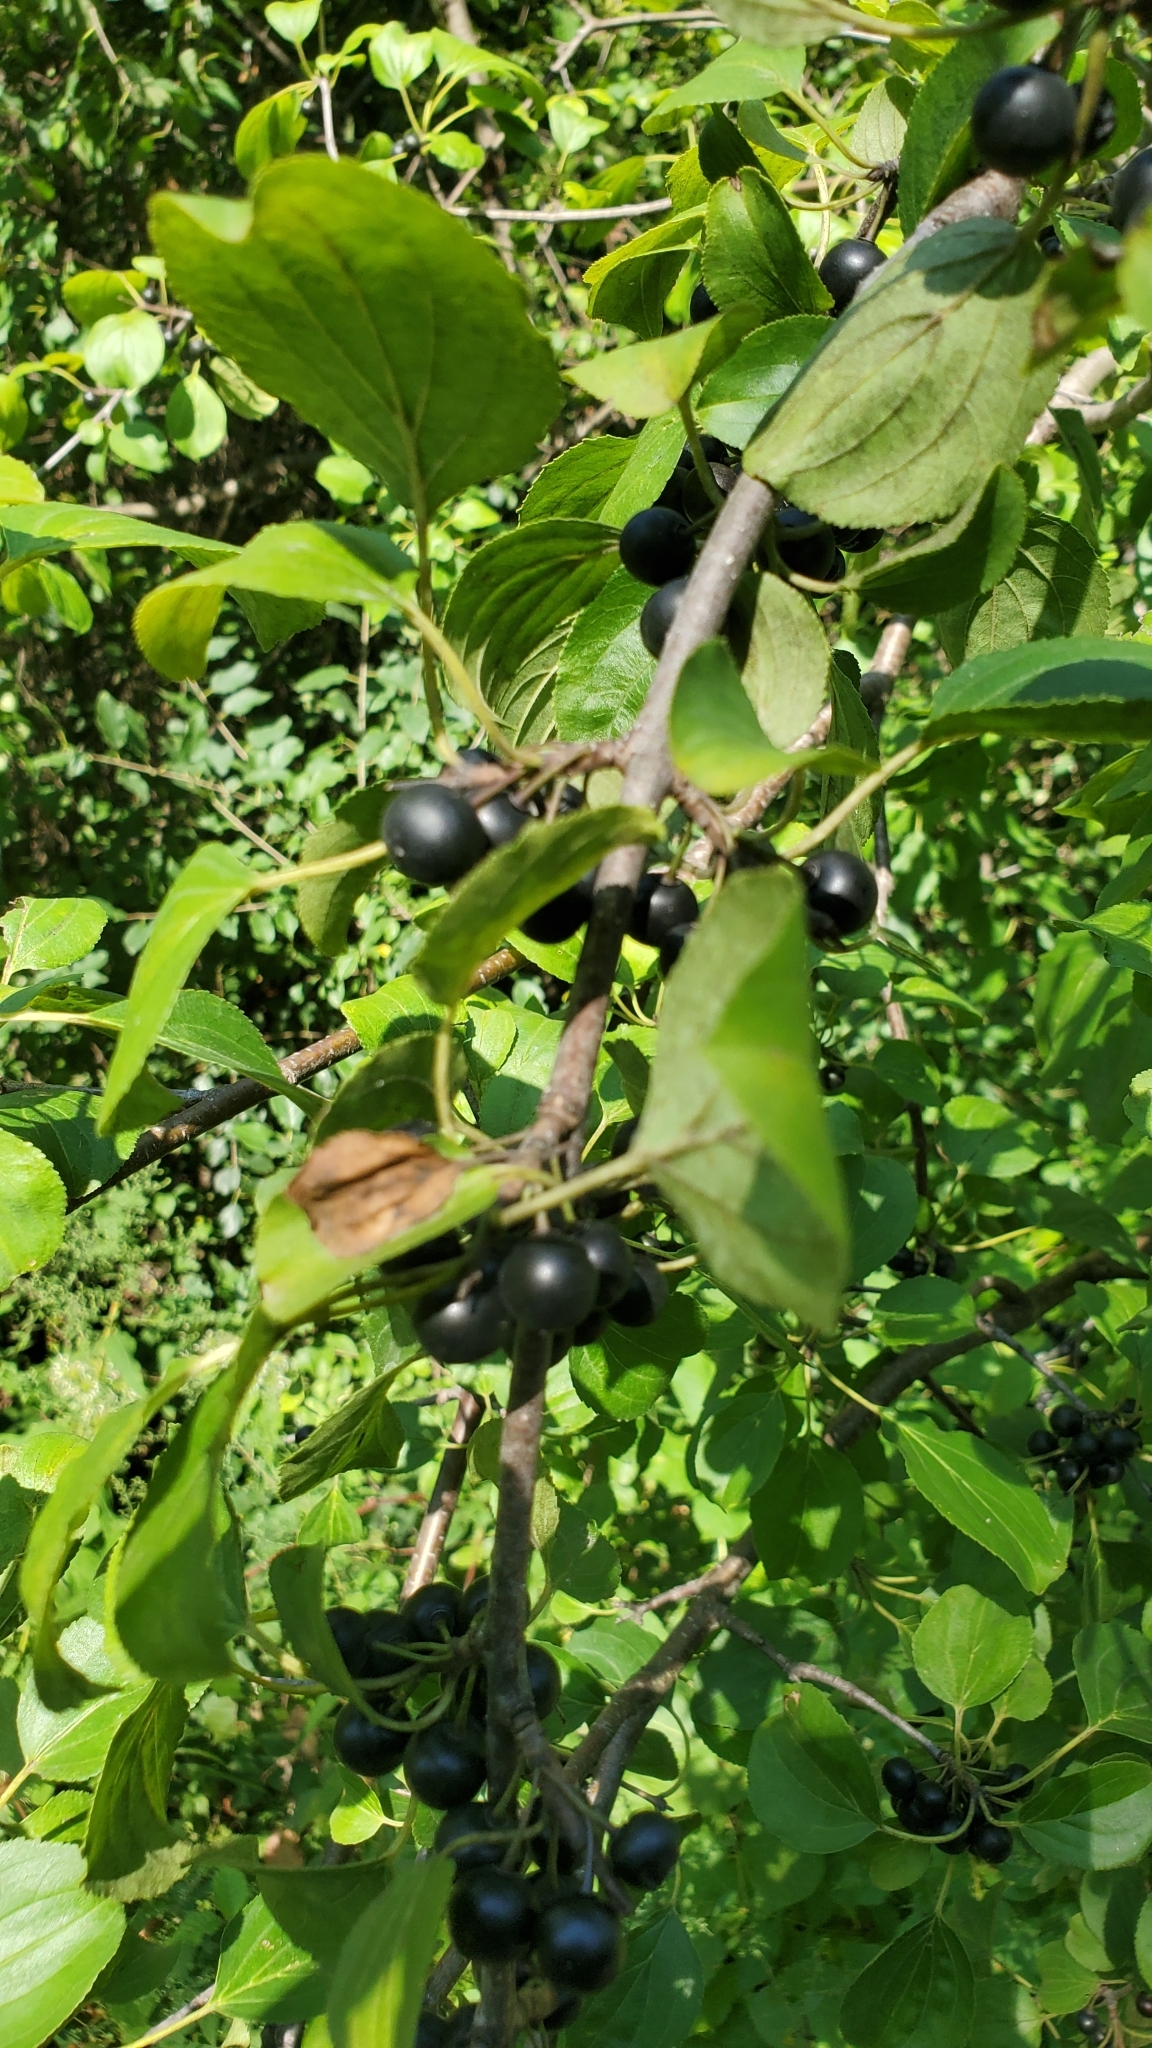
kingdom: Plantae
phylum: Tracheophyta
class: Magnoliopsida
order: Rosales
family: Rhamnaceae
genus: Rhamnus
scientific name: Rhamnus cathartica
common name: Common buckthorn
